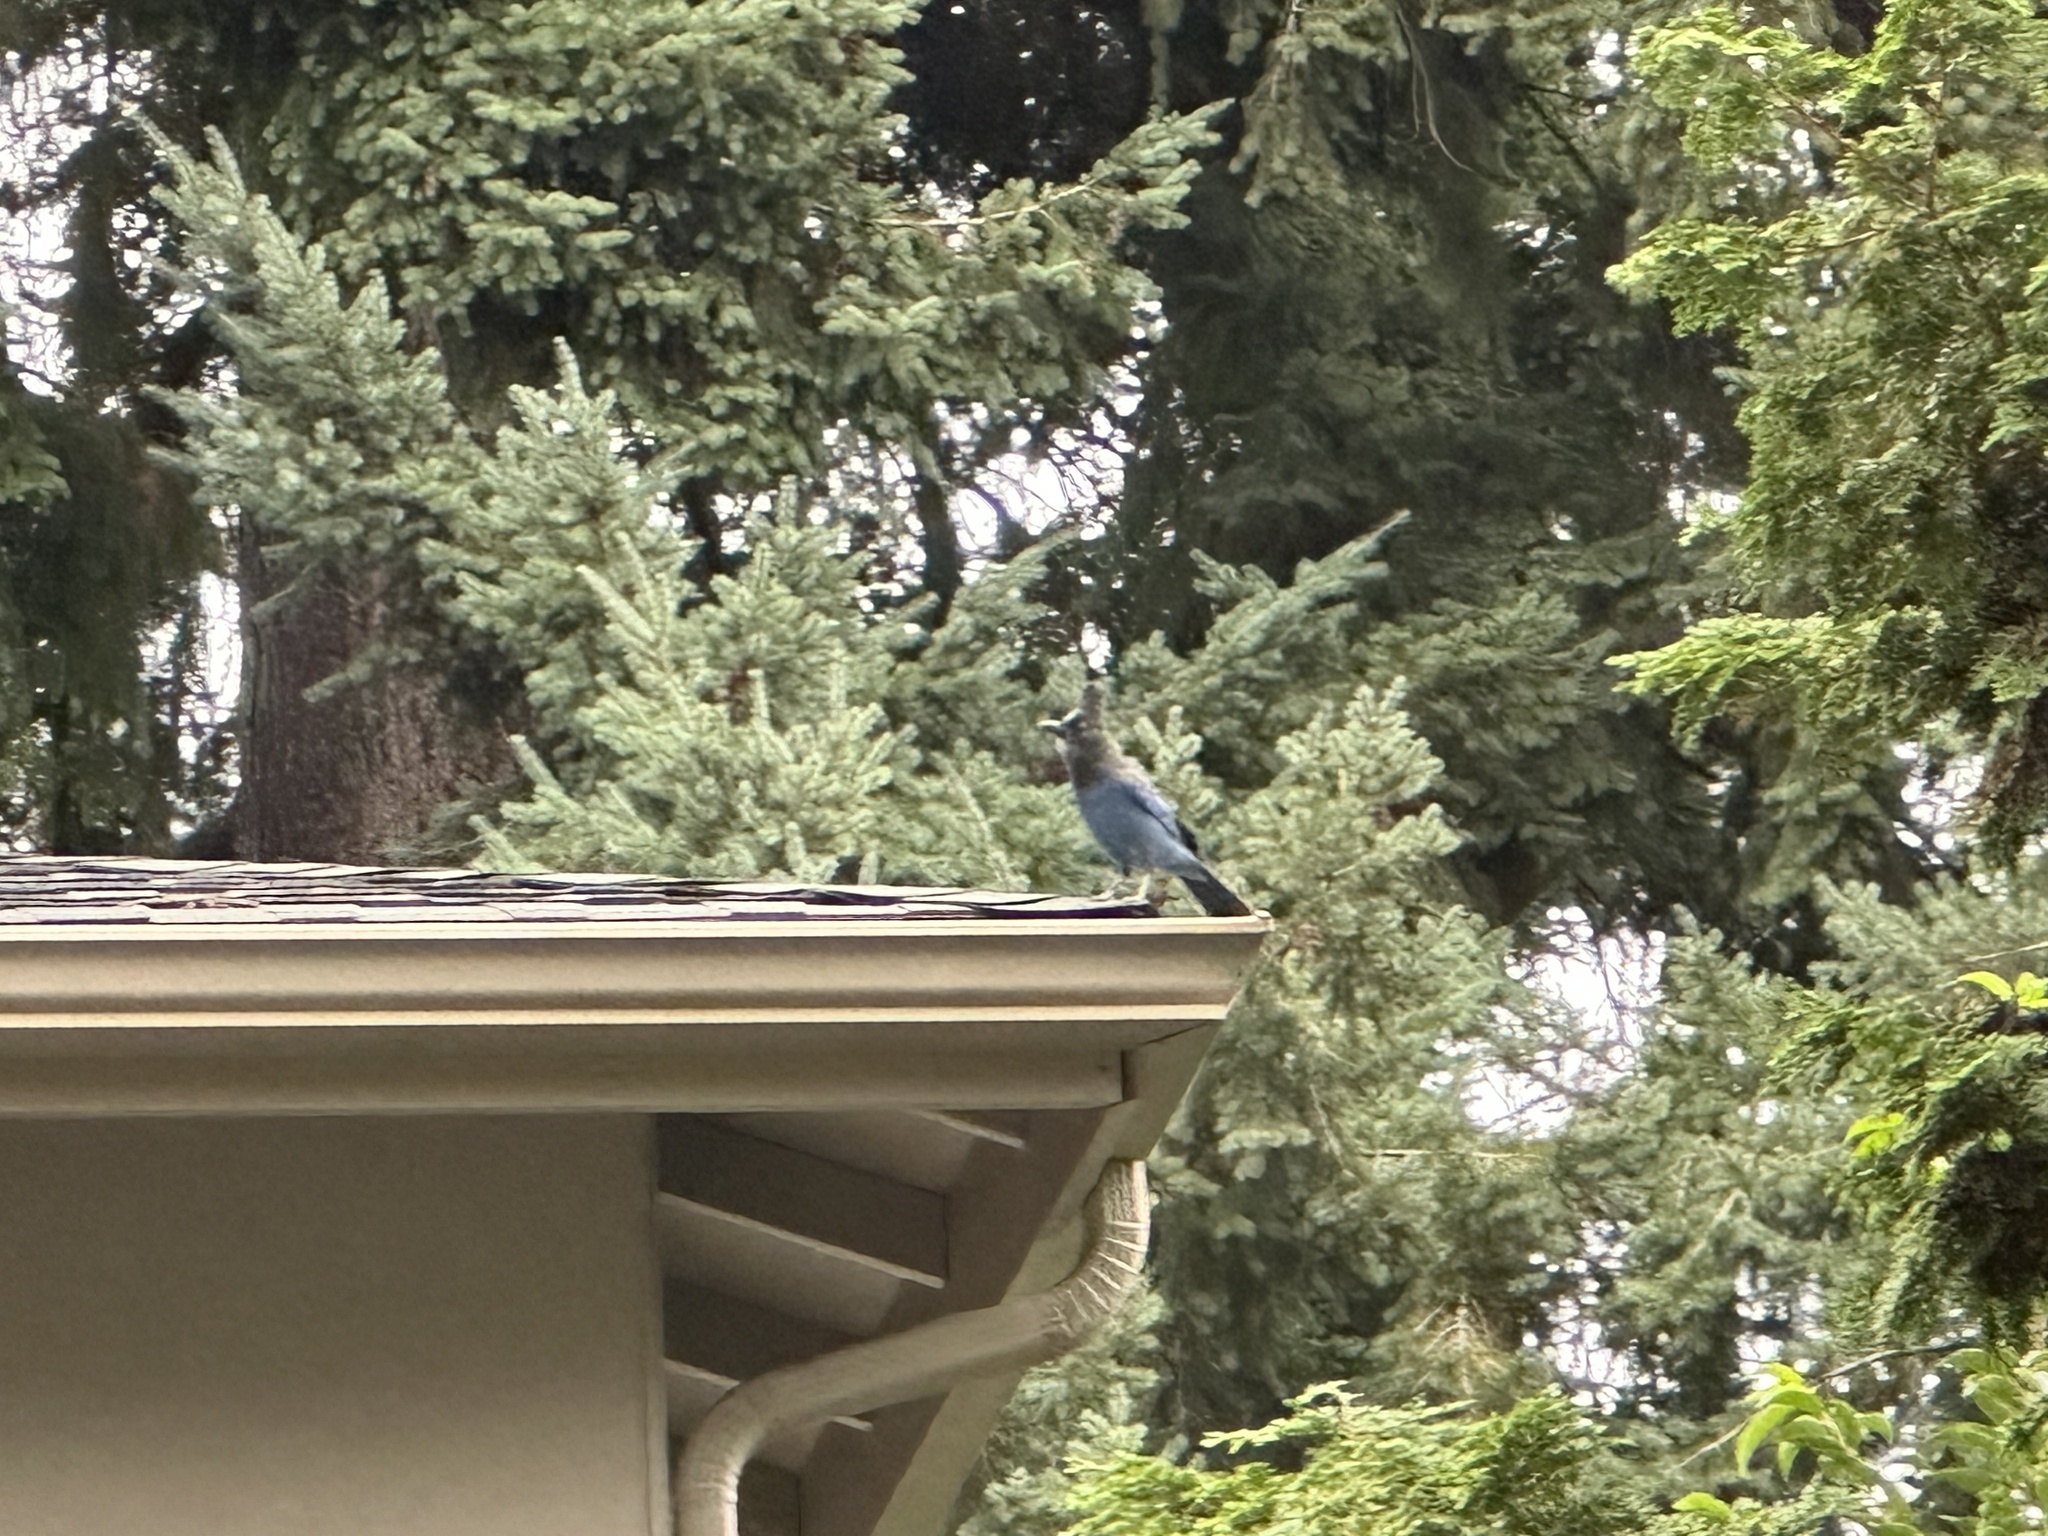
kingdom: Animalia
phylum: Chordata
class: Aves
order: Passeriformes
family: Corvidae
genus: Cyanocitta
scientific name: Cyanocitta stelleri
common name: Steller's jay
